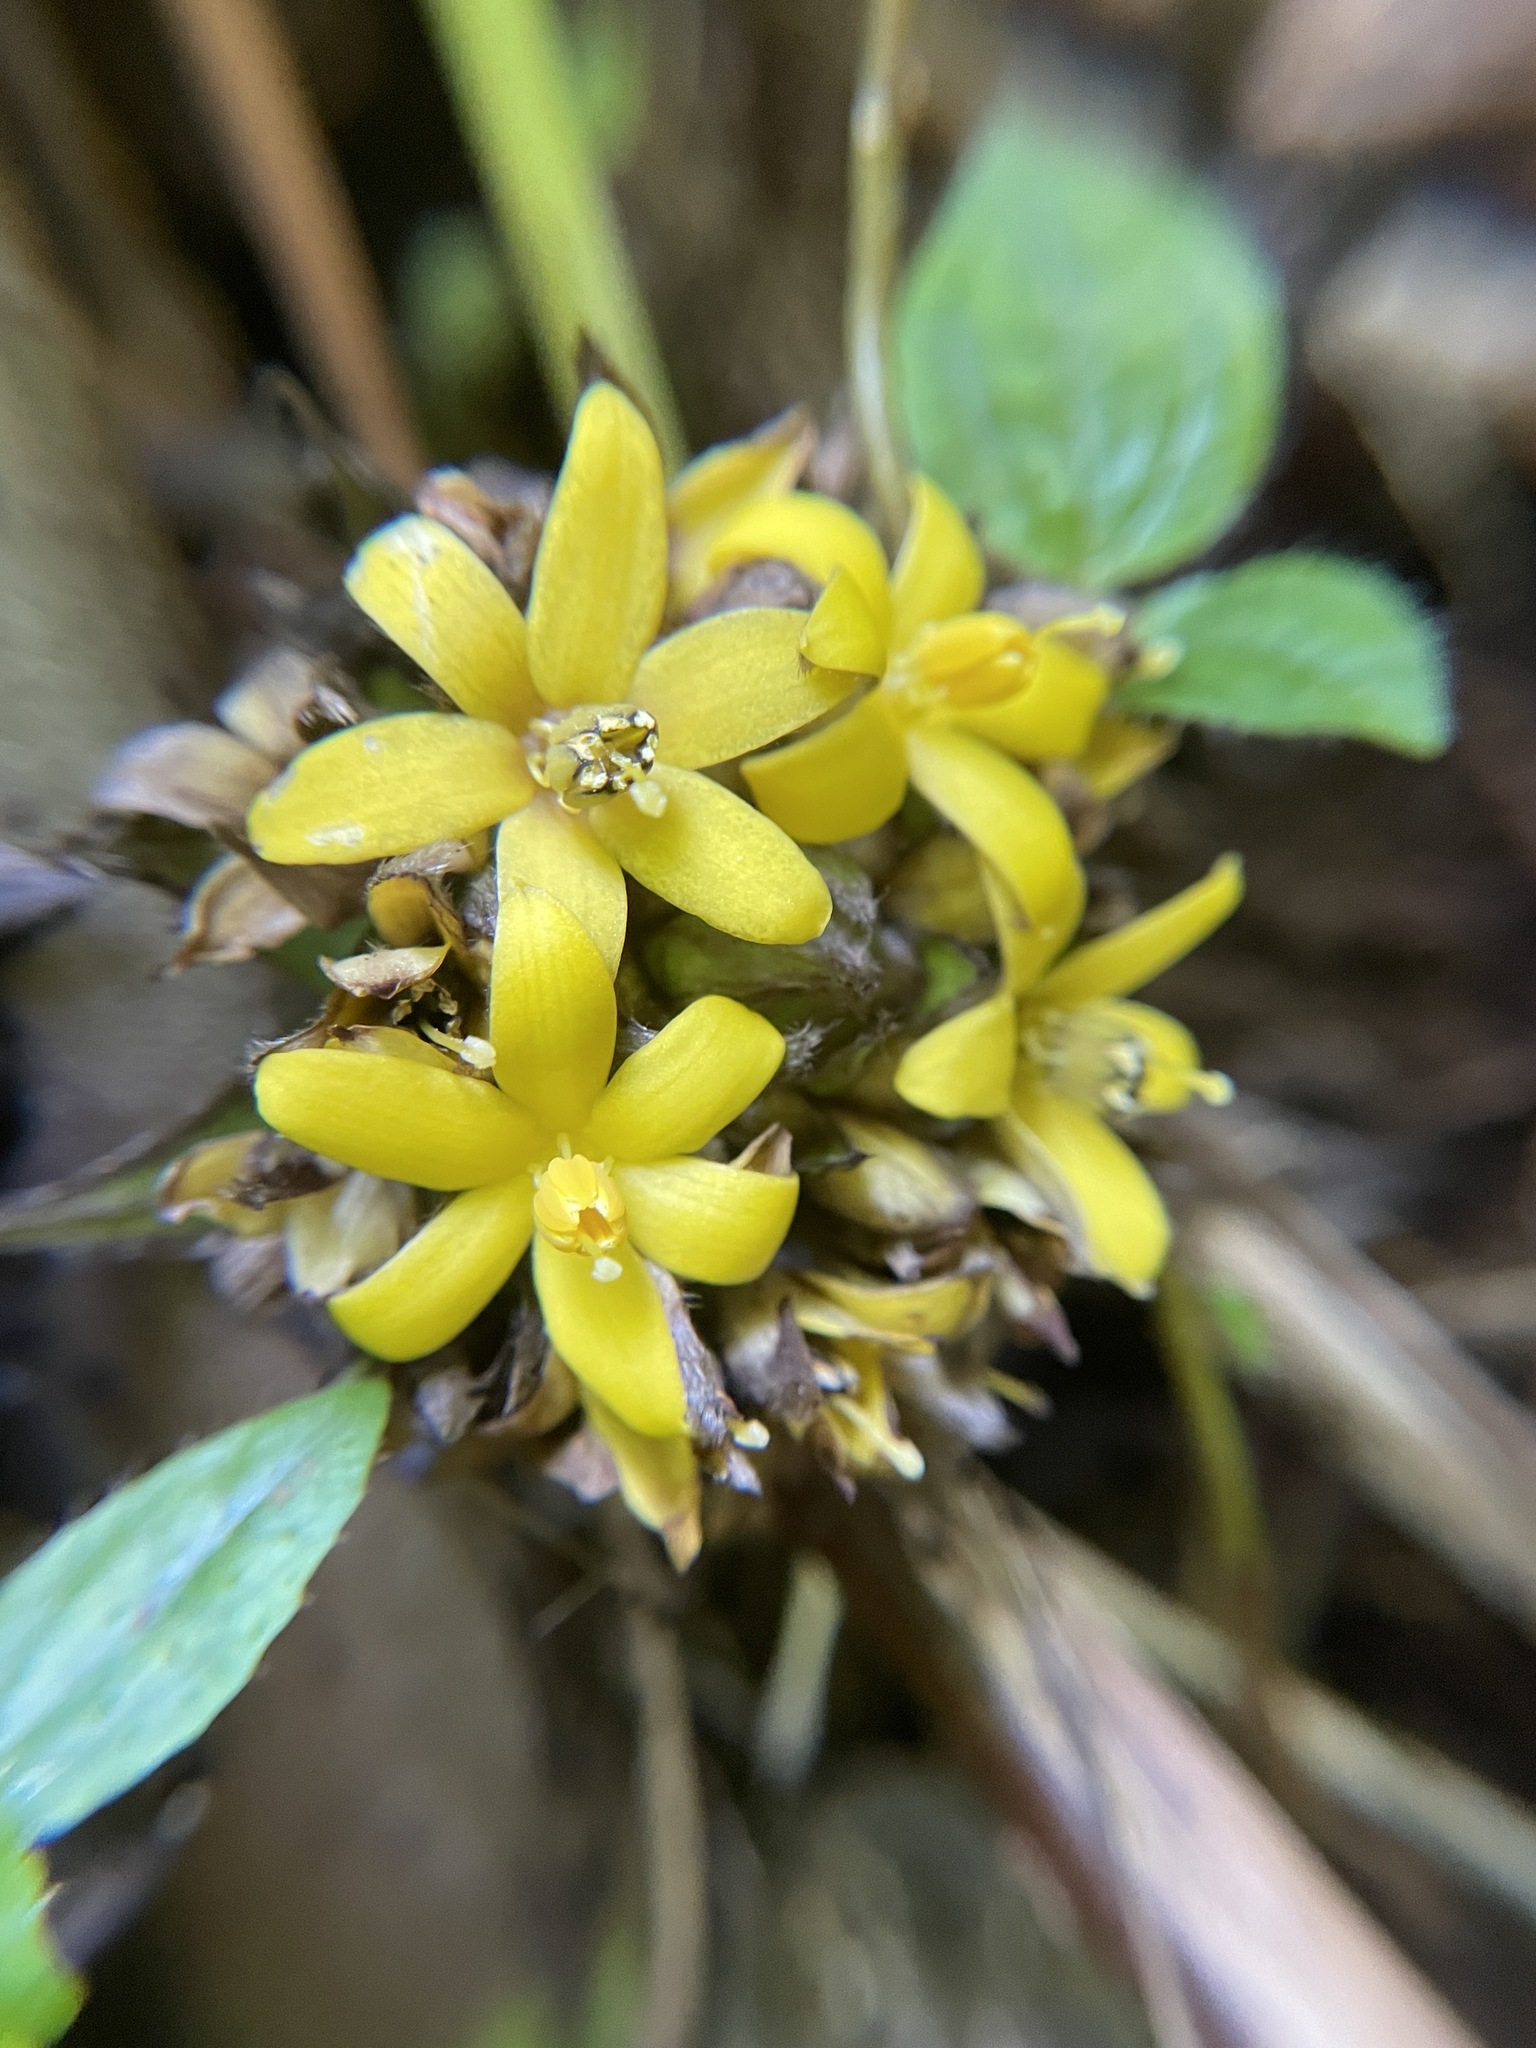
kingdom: Plantae
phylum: Tracheophyta
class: Liliopsida
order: Asparagales
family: Hypoxidaceae
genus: Curculigo
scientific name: Curculigo capitulata
